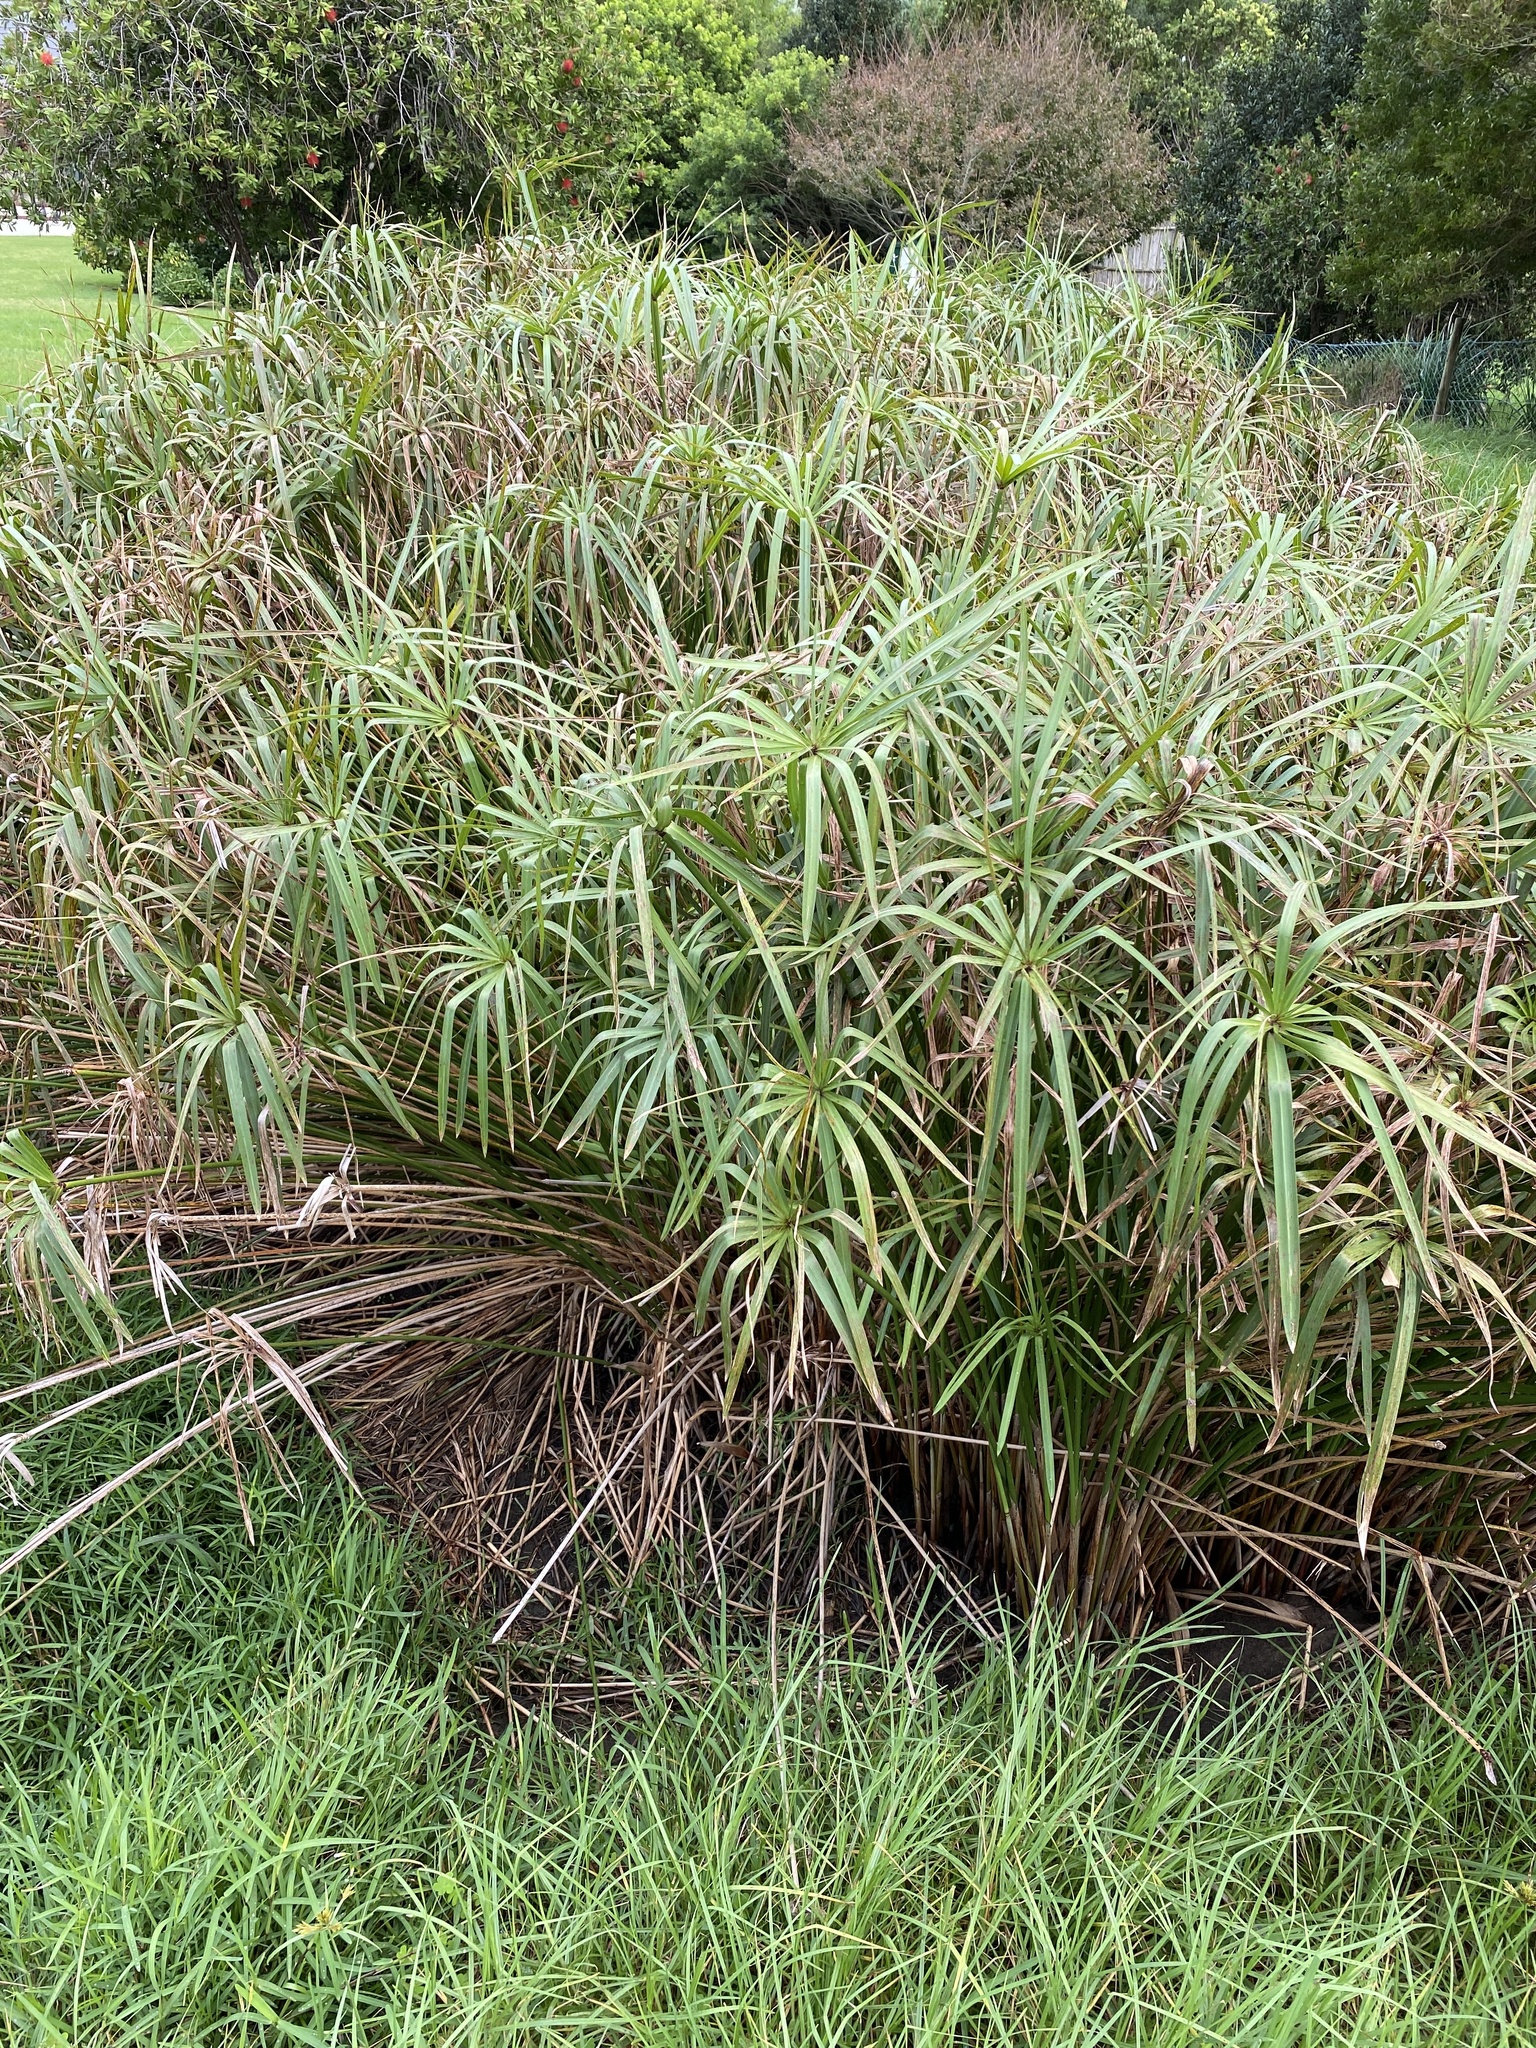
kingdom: Plantae
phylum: Tracheophyta
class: Liliopsida
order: Poales
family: Cyperaceae
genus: Cyperus
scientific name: Cyperus textilis
